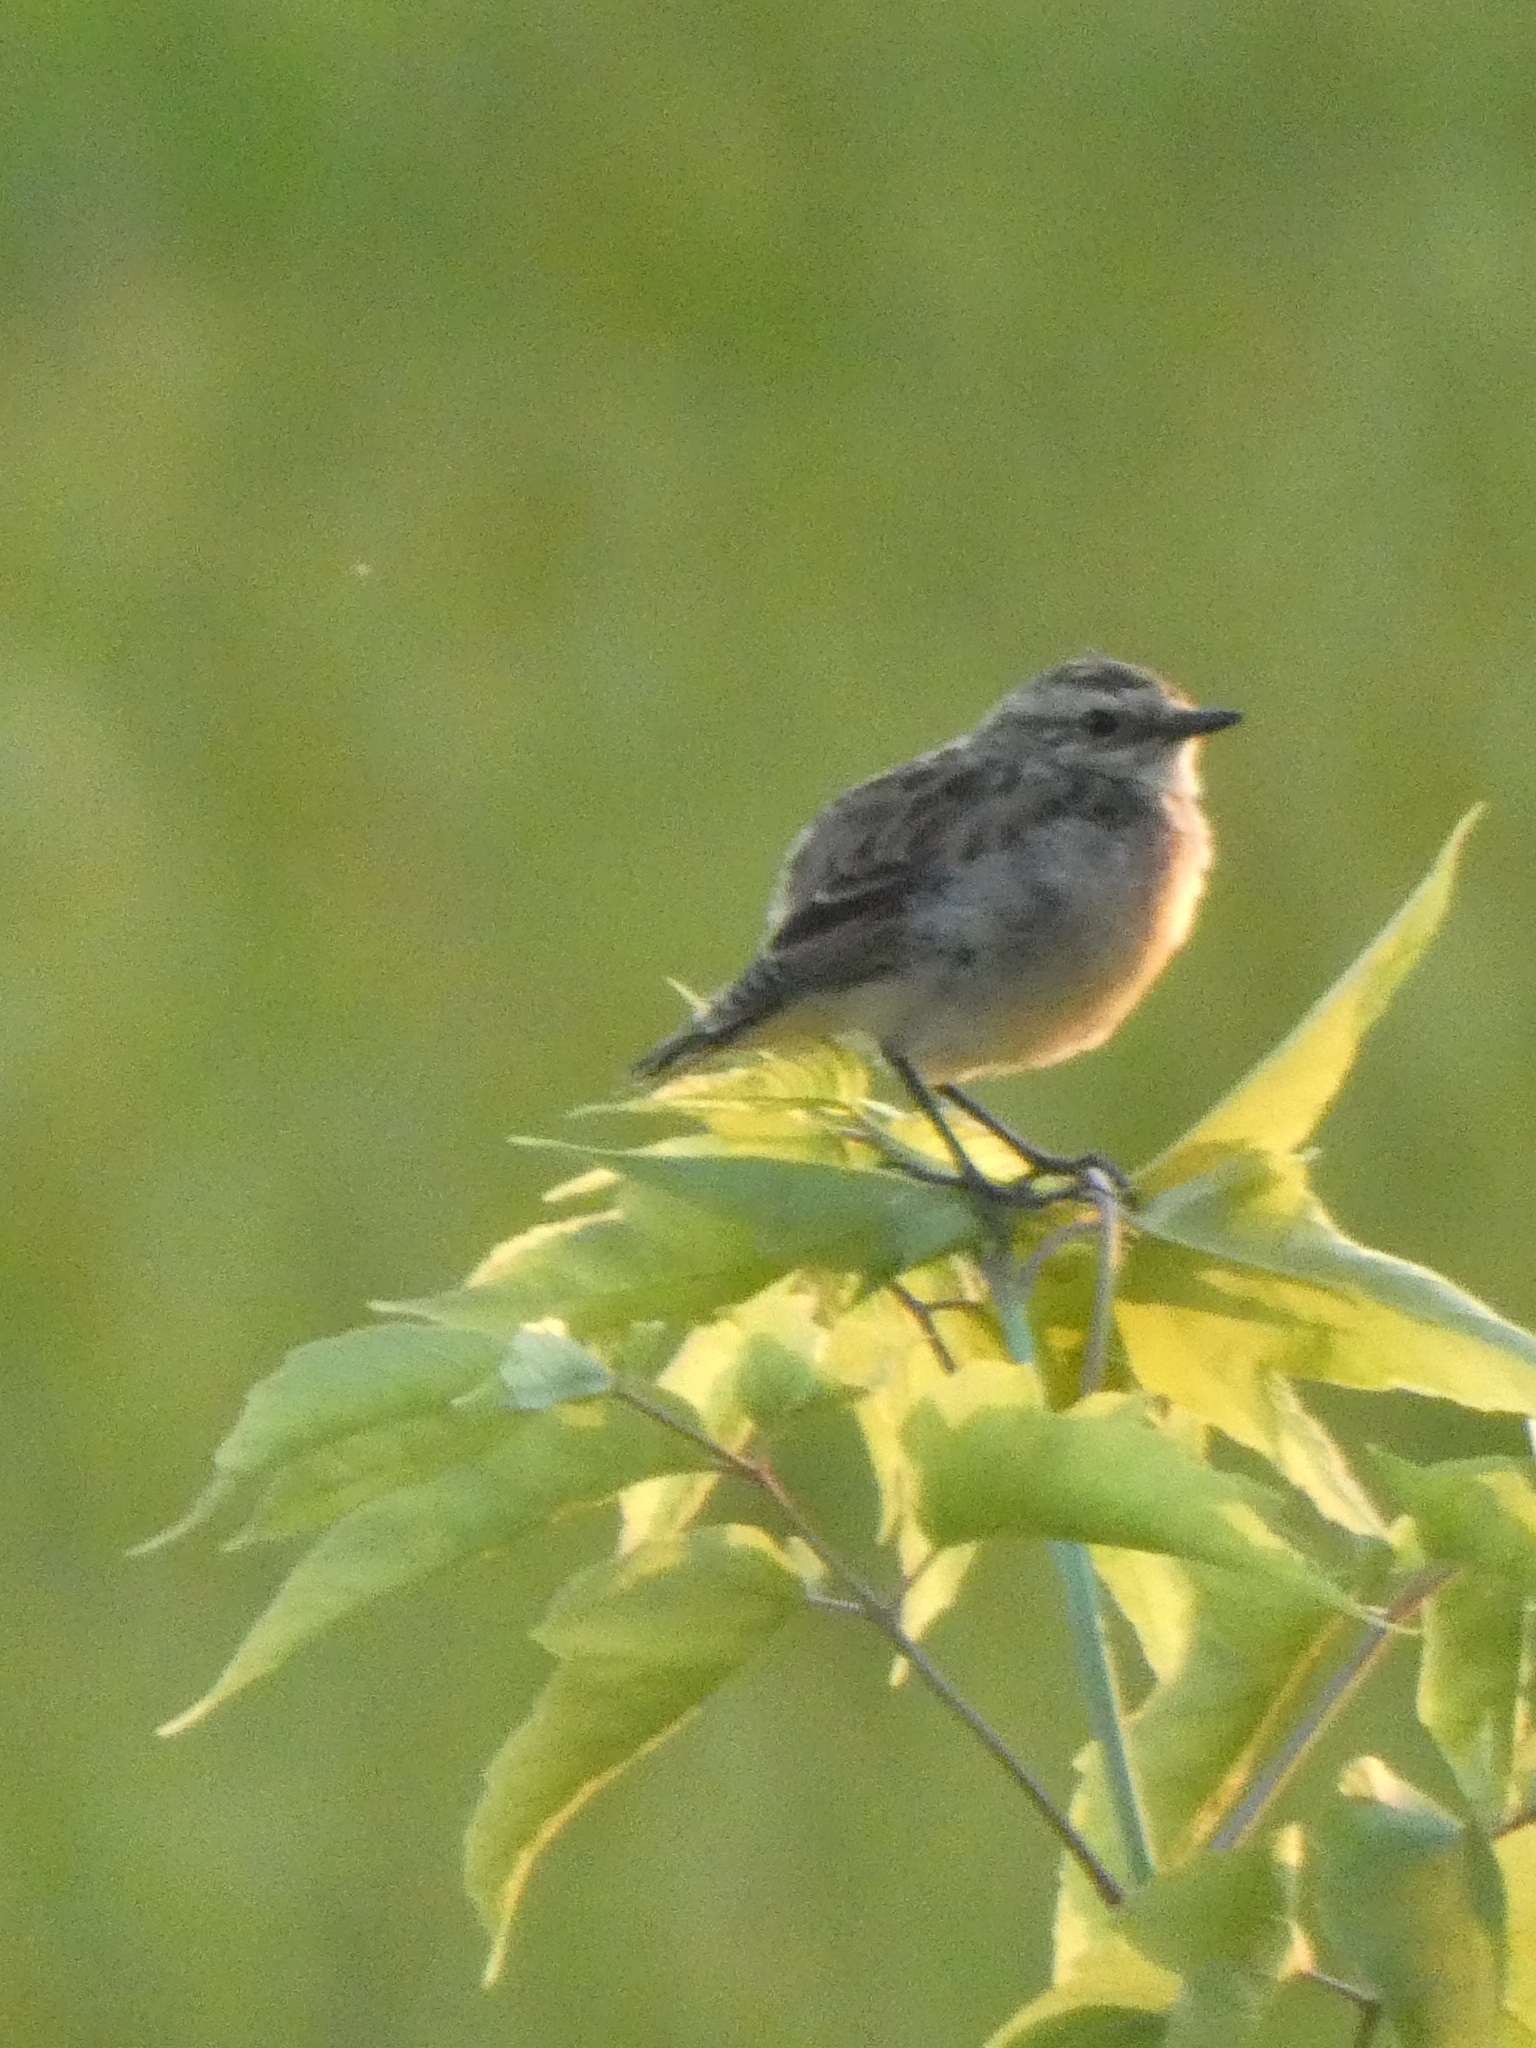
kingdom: Animalia
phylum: Chordata
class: Aves
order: Passeriformes
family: Muscicapidae
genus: Saxicola
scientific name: Saxicola rubetra
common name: Whinchat
